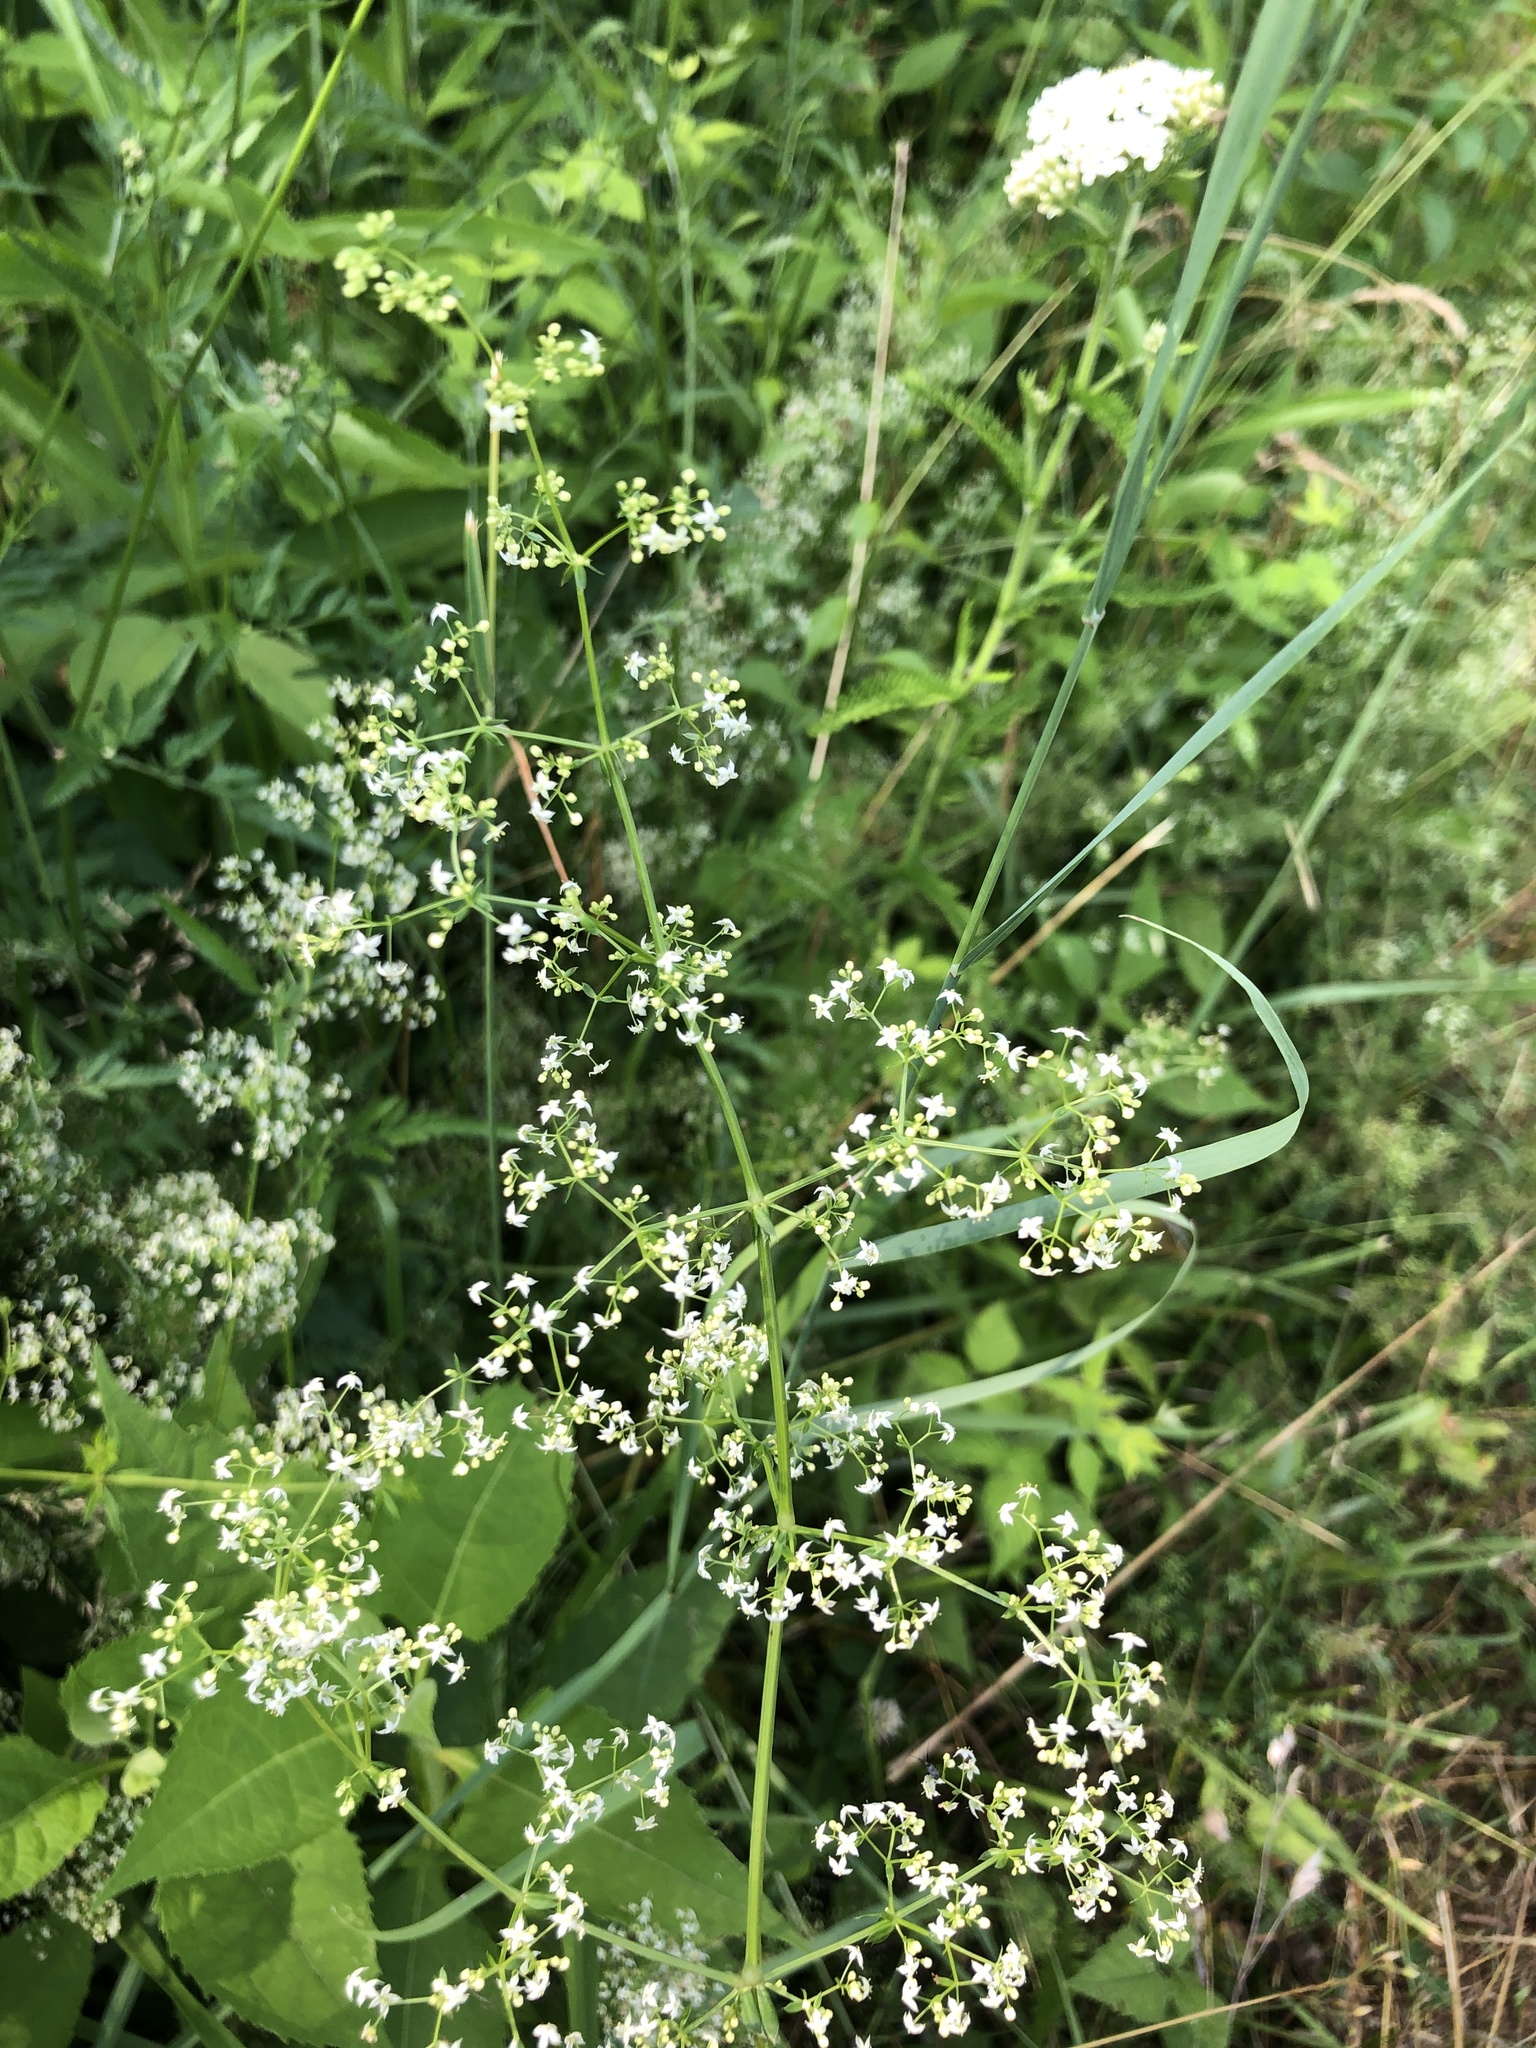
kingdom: Plantae
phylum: Tracheophyta
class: Magnoliopsida
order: Gentianales
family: Rubiaceae
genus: Galium
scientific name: Galium mollugo
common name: Hedge bedstraw
